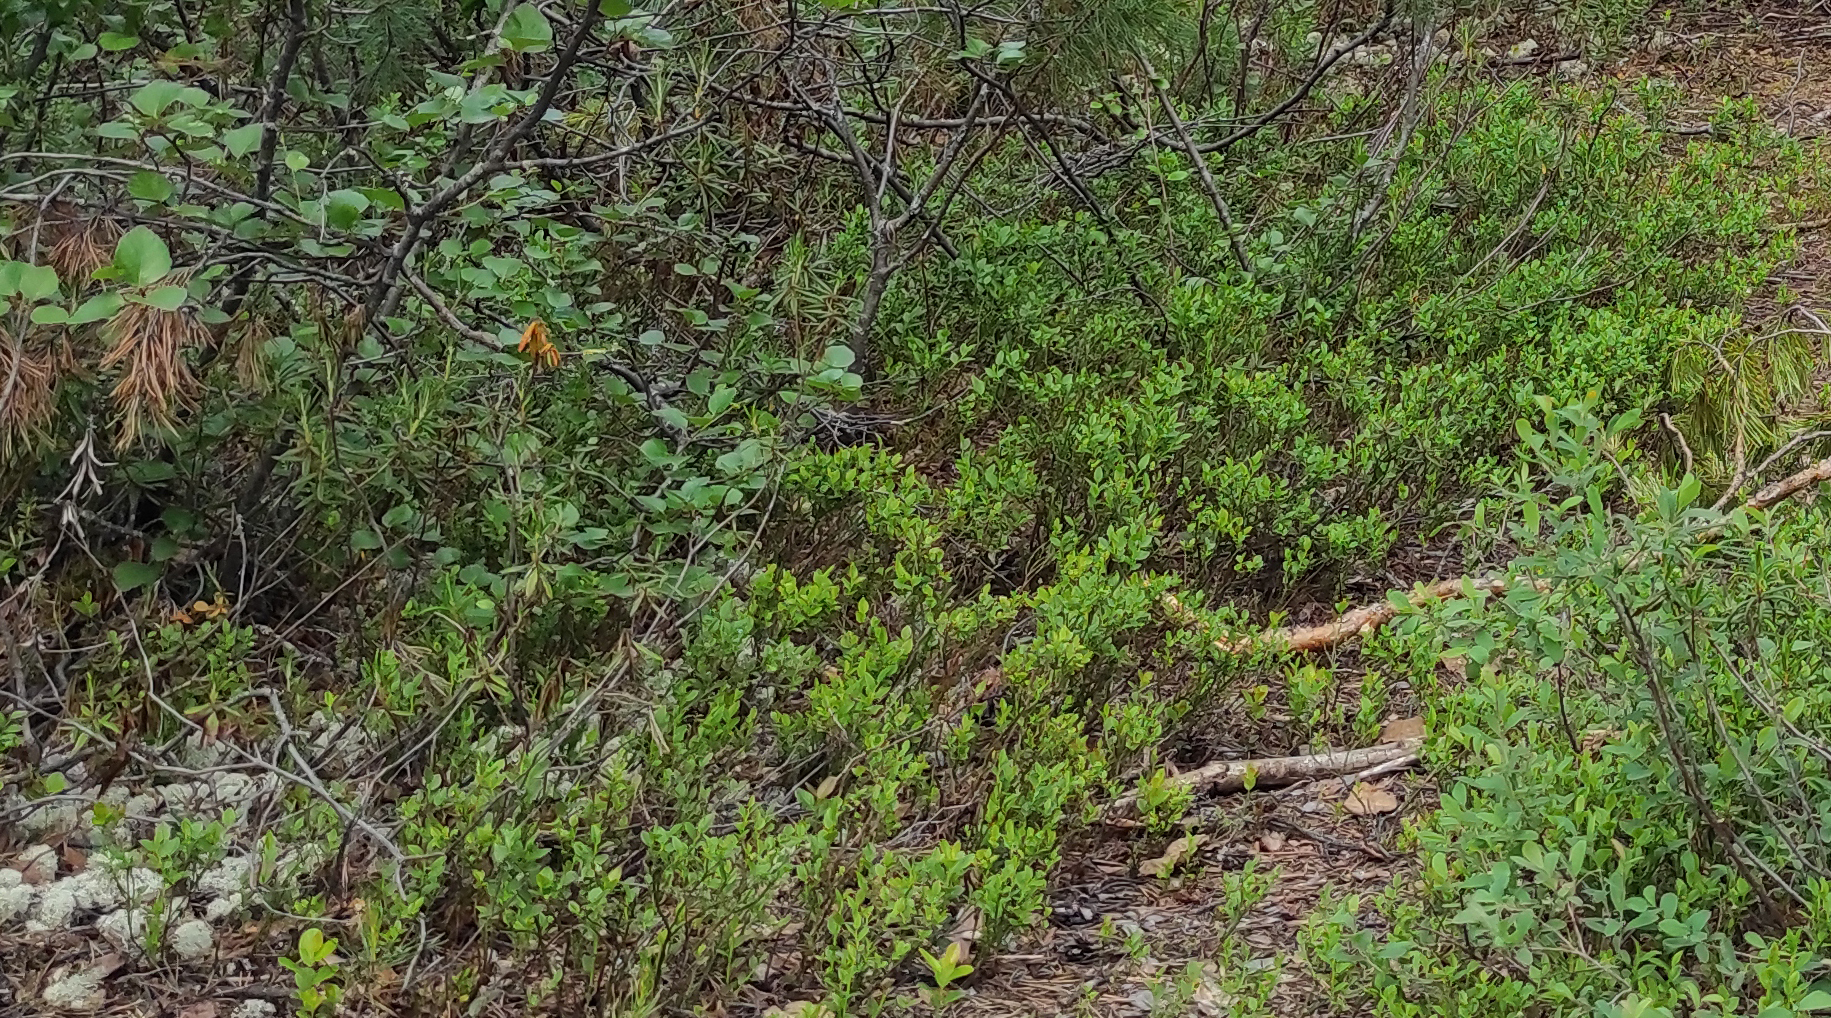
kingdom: Plantae
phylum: Tracheophyta
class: Magnoliopsida
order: Ericales
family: Ericaceae
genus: Vaccinium
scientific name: Vaccinium myrtillus
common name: Bilberry
